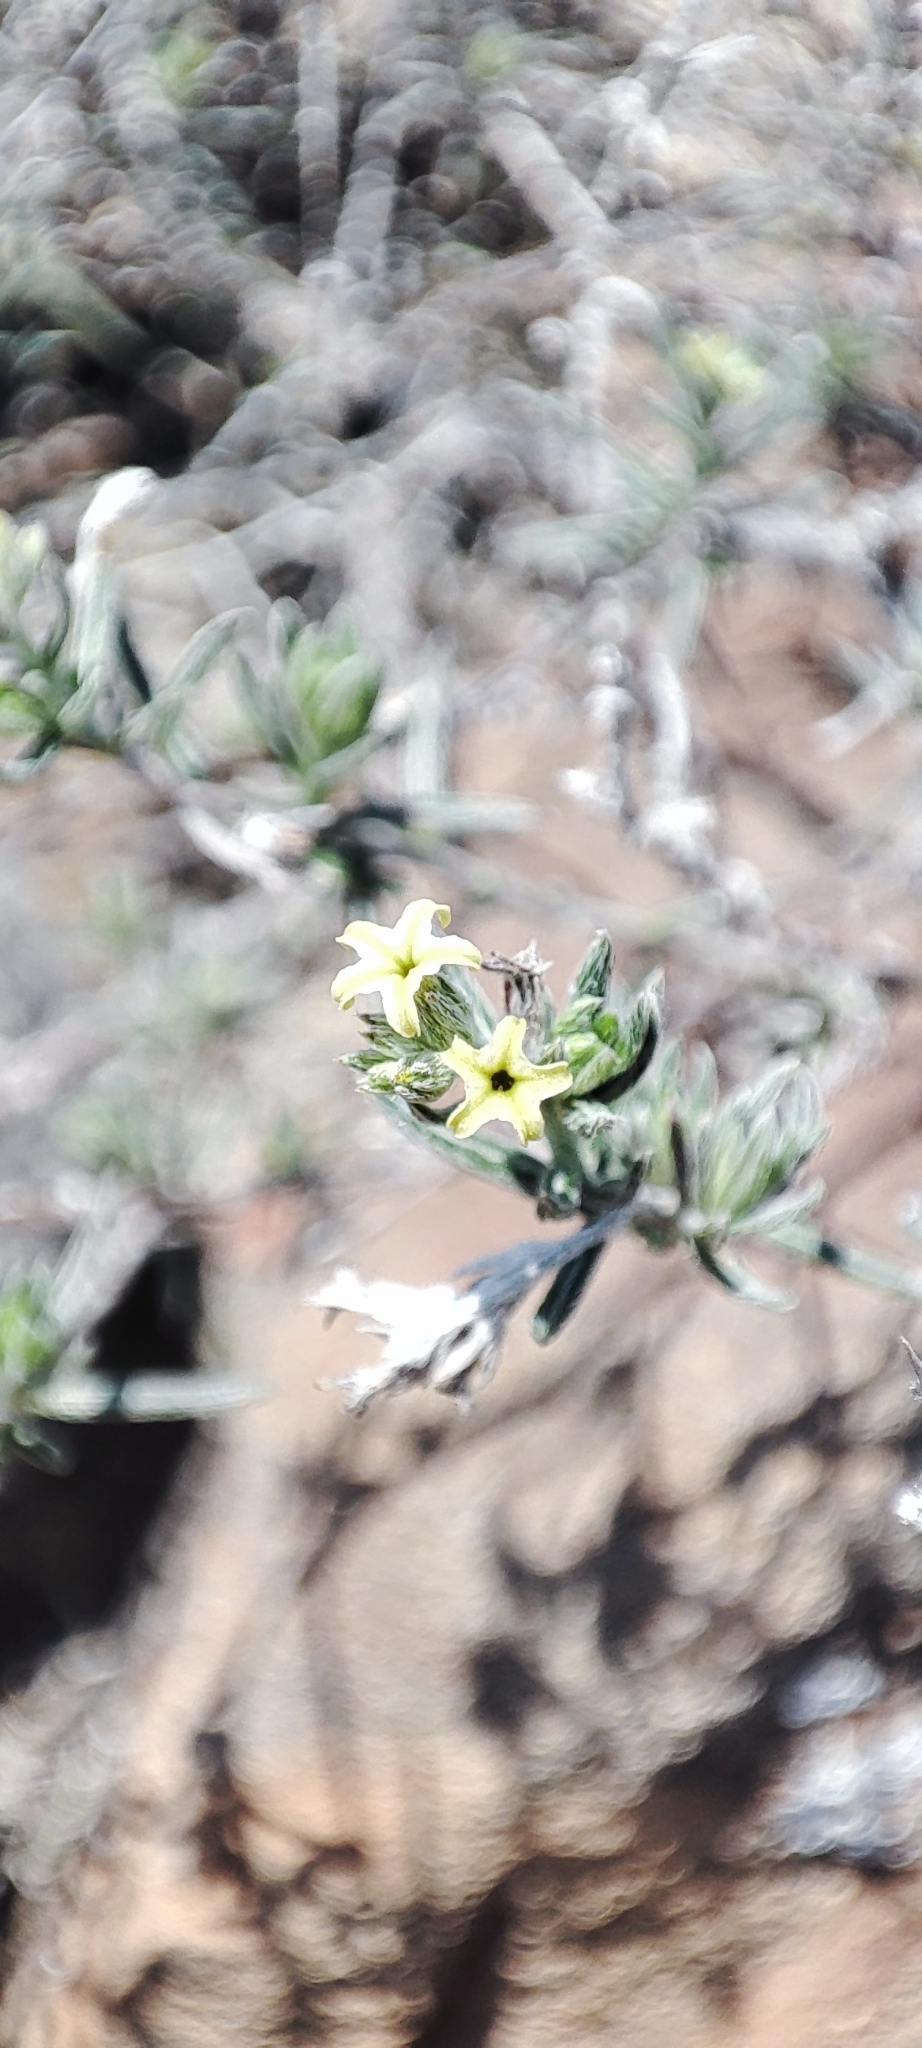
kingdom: Plantae
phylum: Tracheophyta
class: Magnoliopsida
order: Boraginales
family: Heliotropiaceae
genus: Euploca
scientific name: Euploca torreyi
